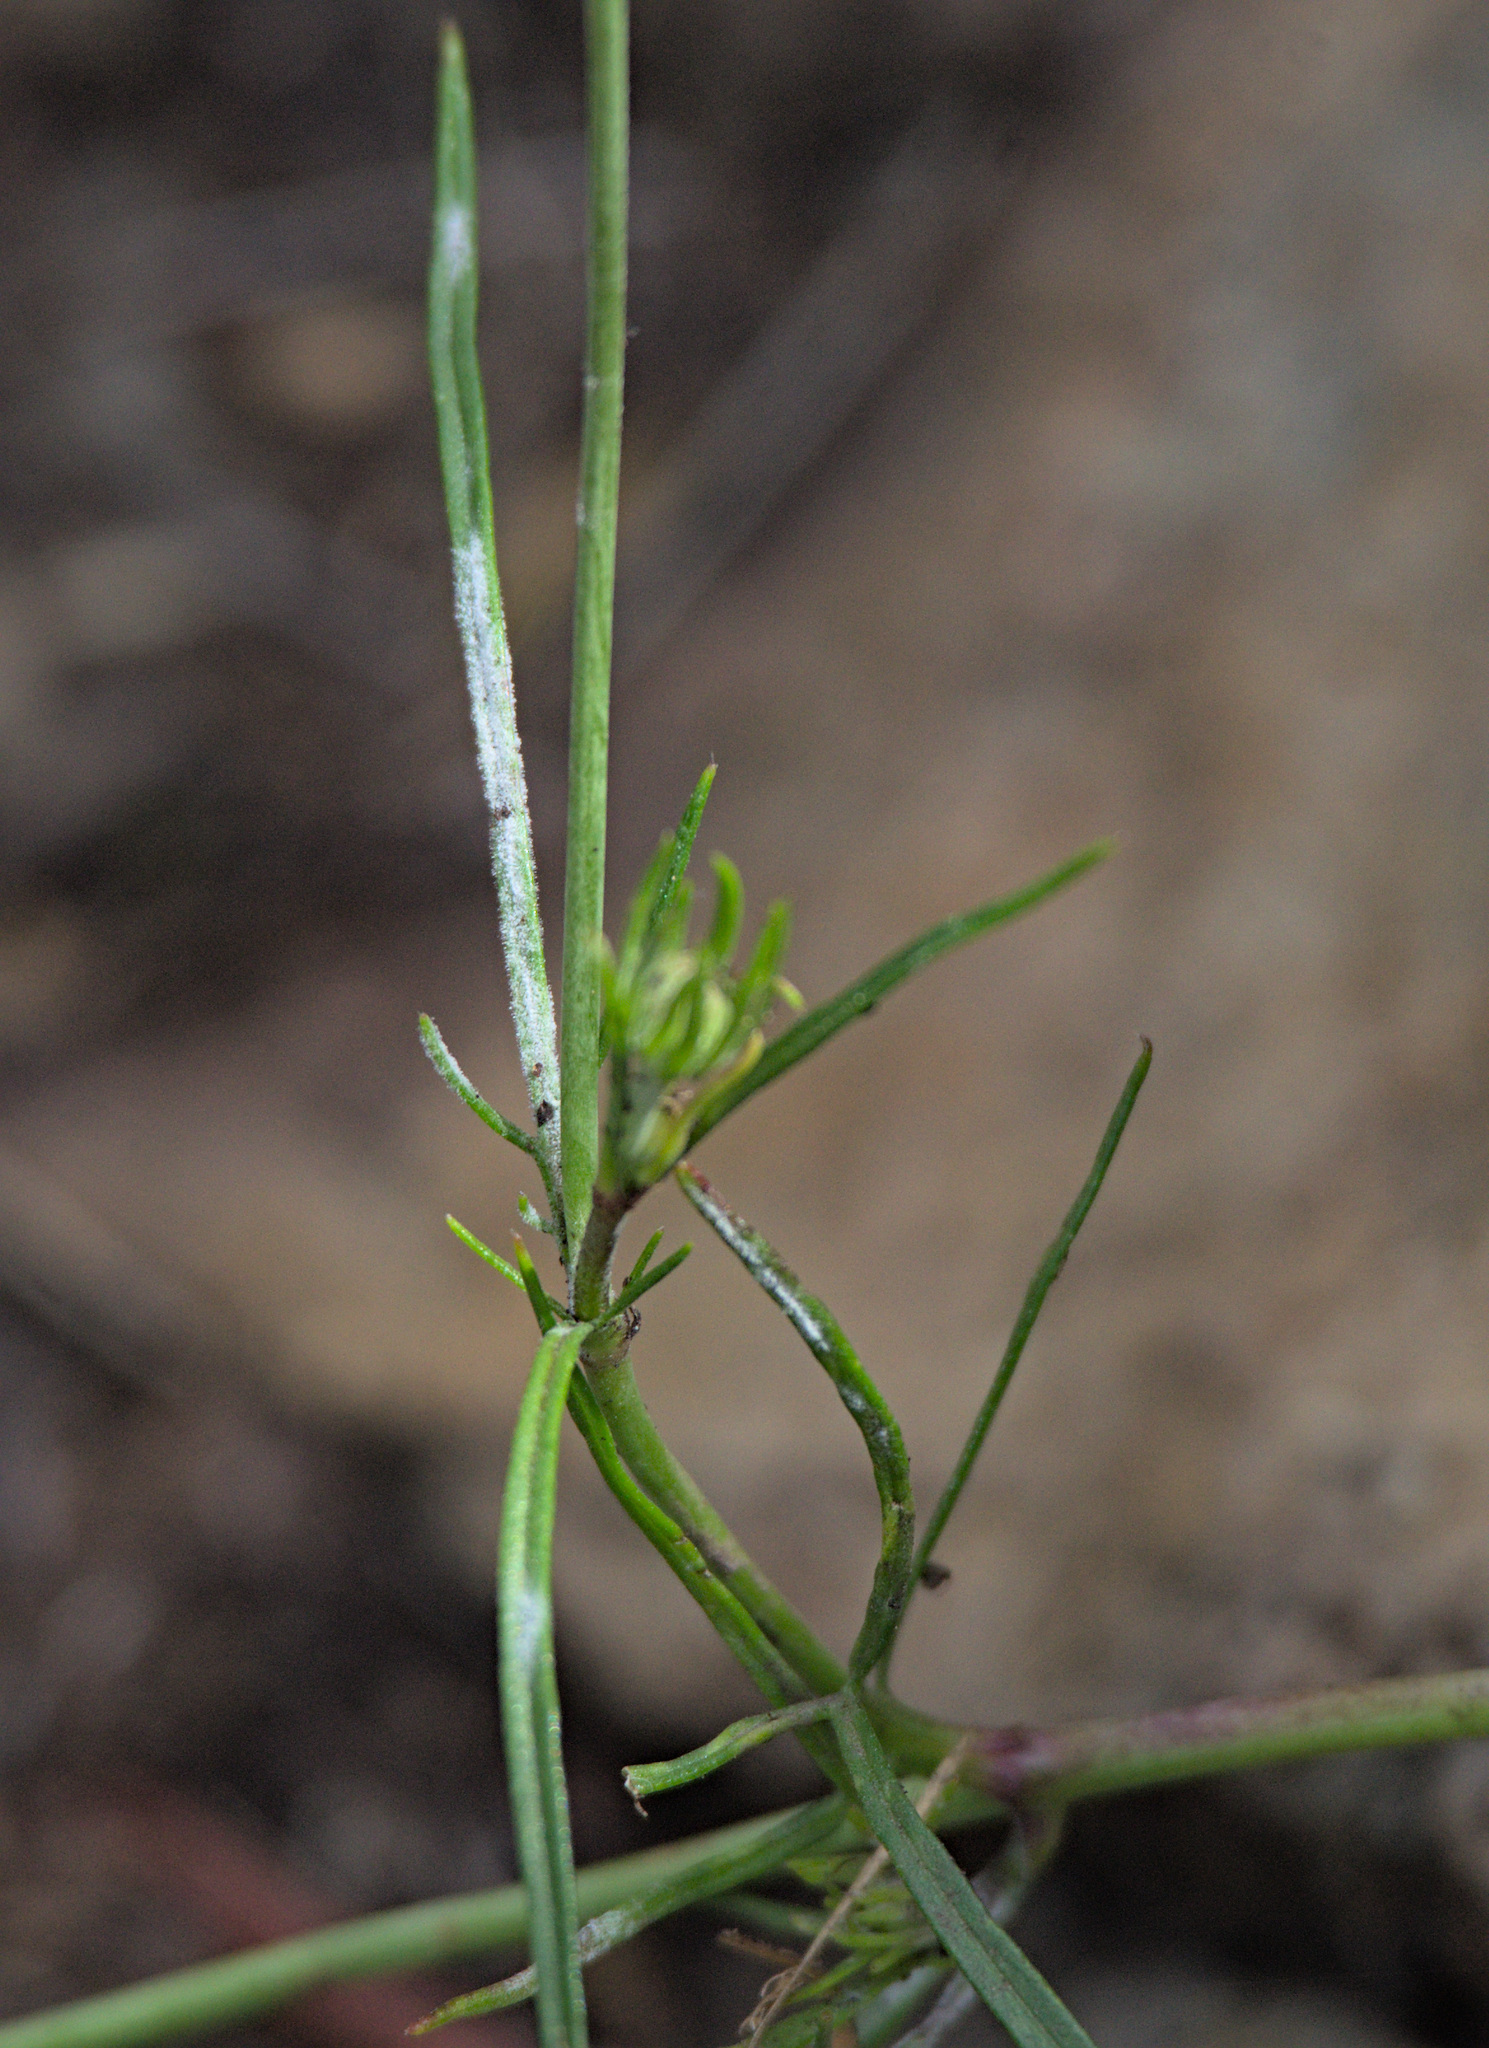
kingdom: Plantae
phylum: Tracheophyta
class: Magnoliopsida
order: Dipsacales
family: Caprifoliaceae
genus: Scabiosa
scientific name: Scabiosa ochroleuca
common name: Cream pincushions
